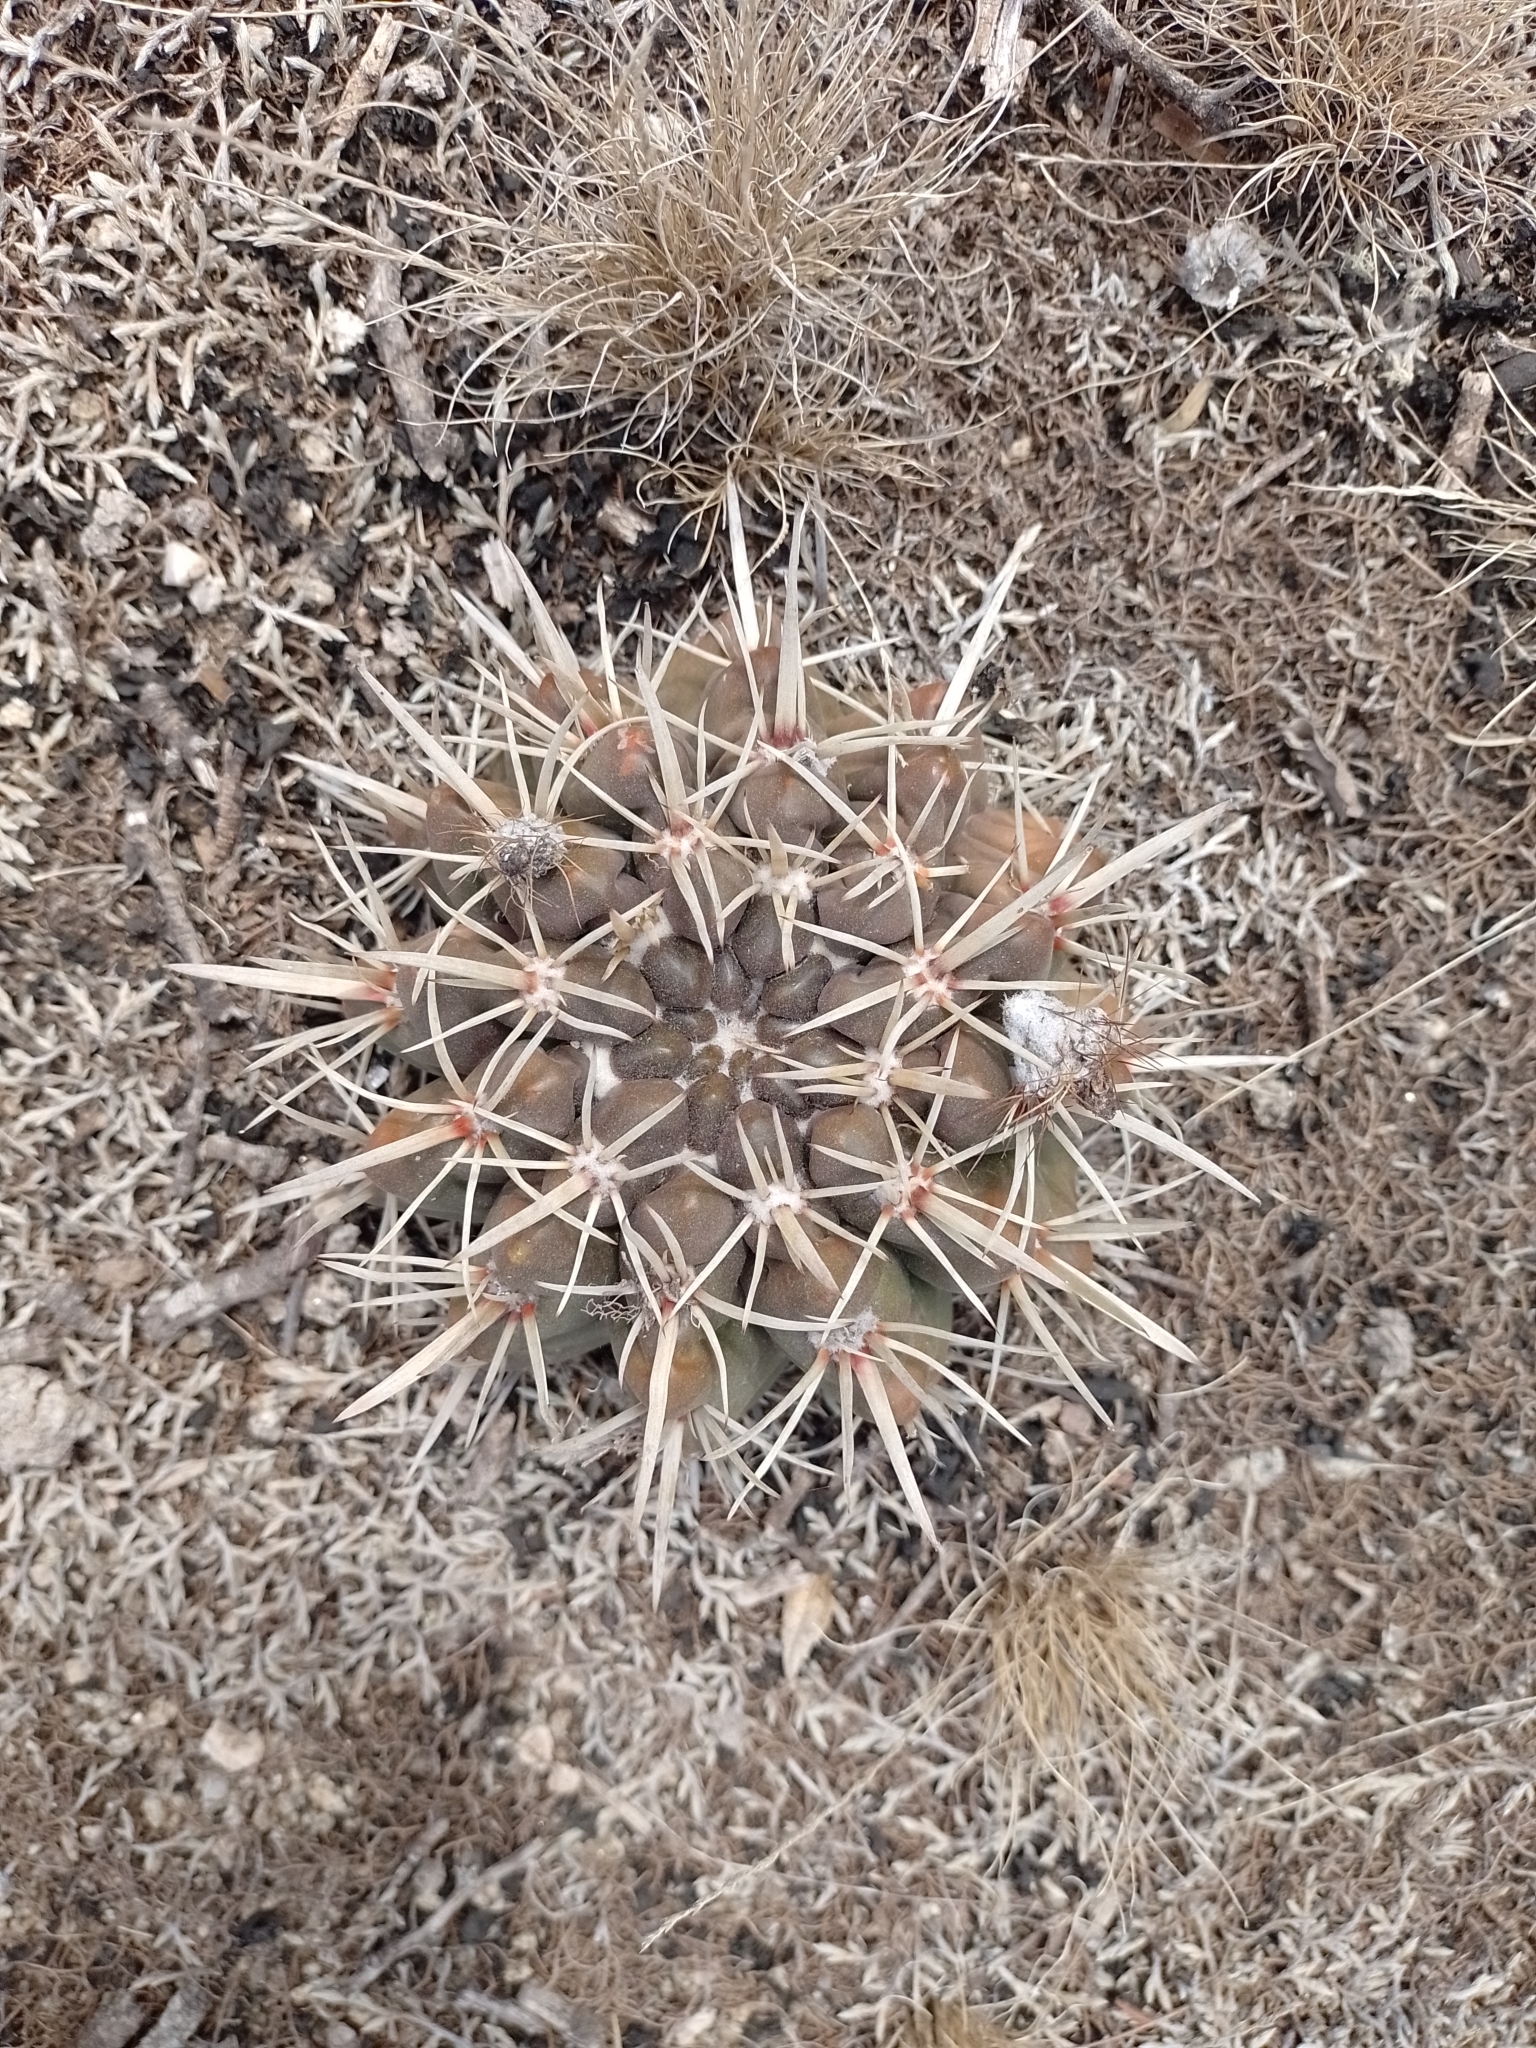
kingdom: Plantae
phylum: Tracheophyta
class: Magnoliopsida
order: Caryophyllales
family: Cactaceae
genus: Parodia
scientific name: Parodia mammulosa
